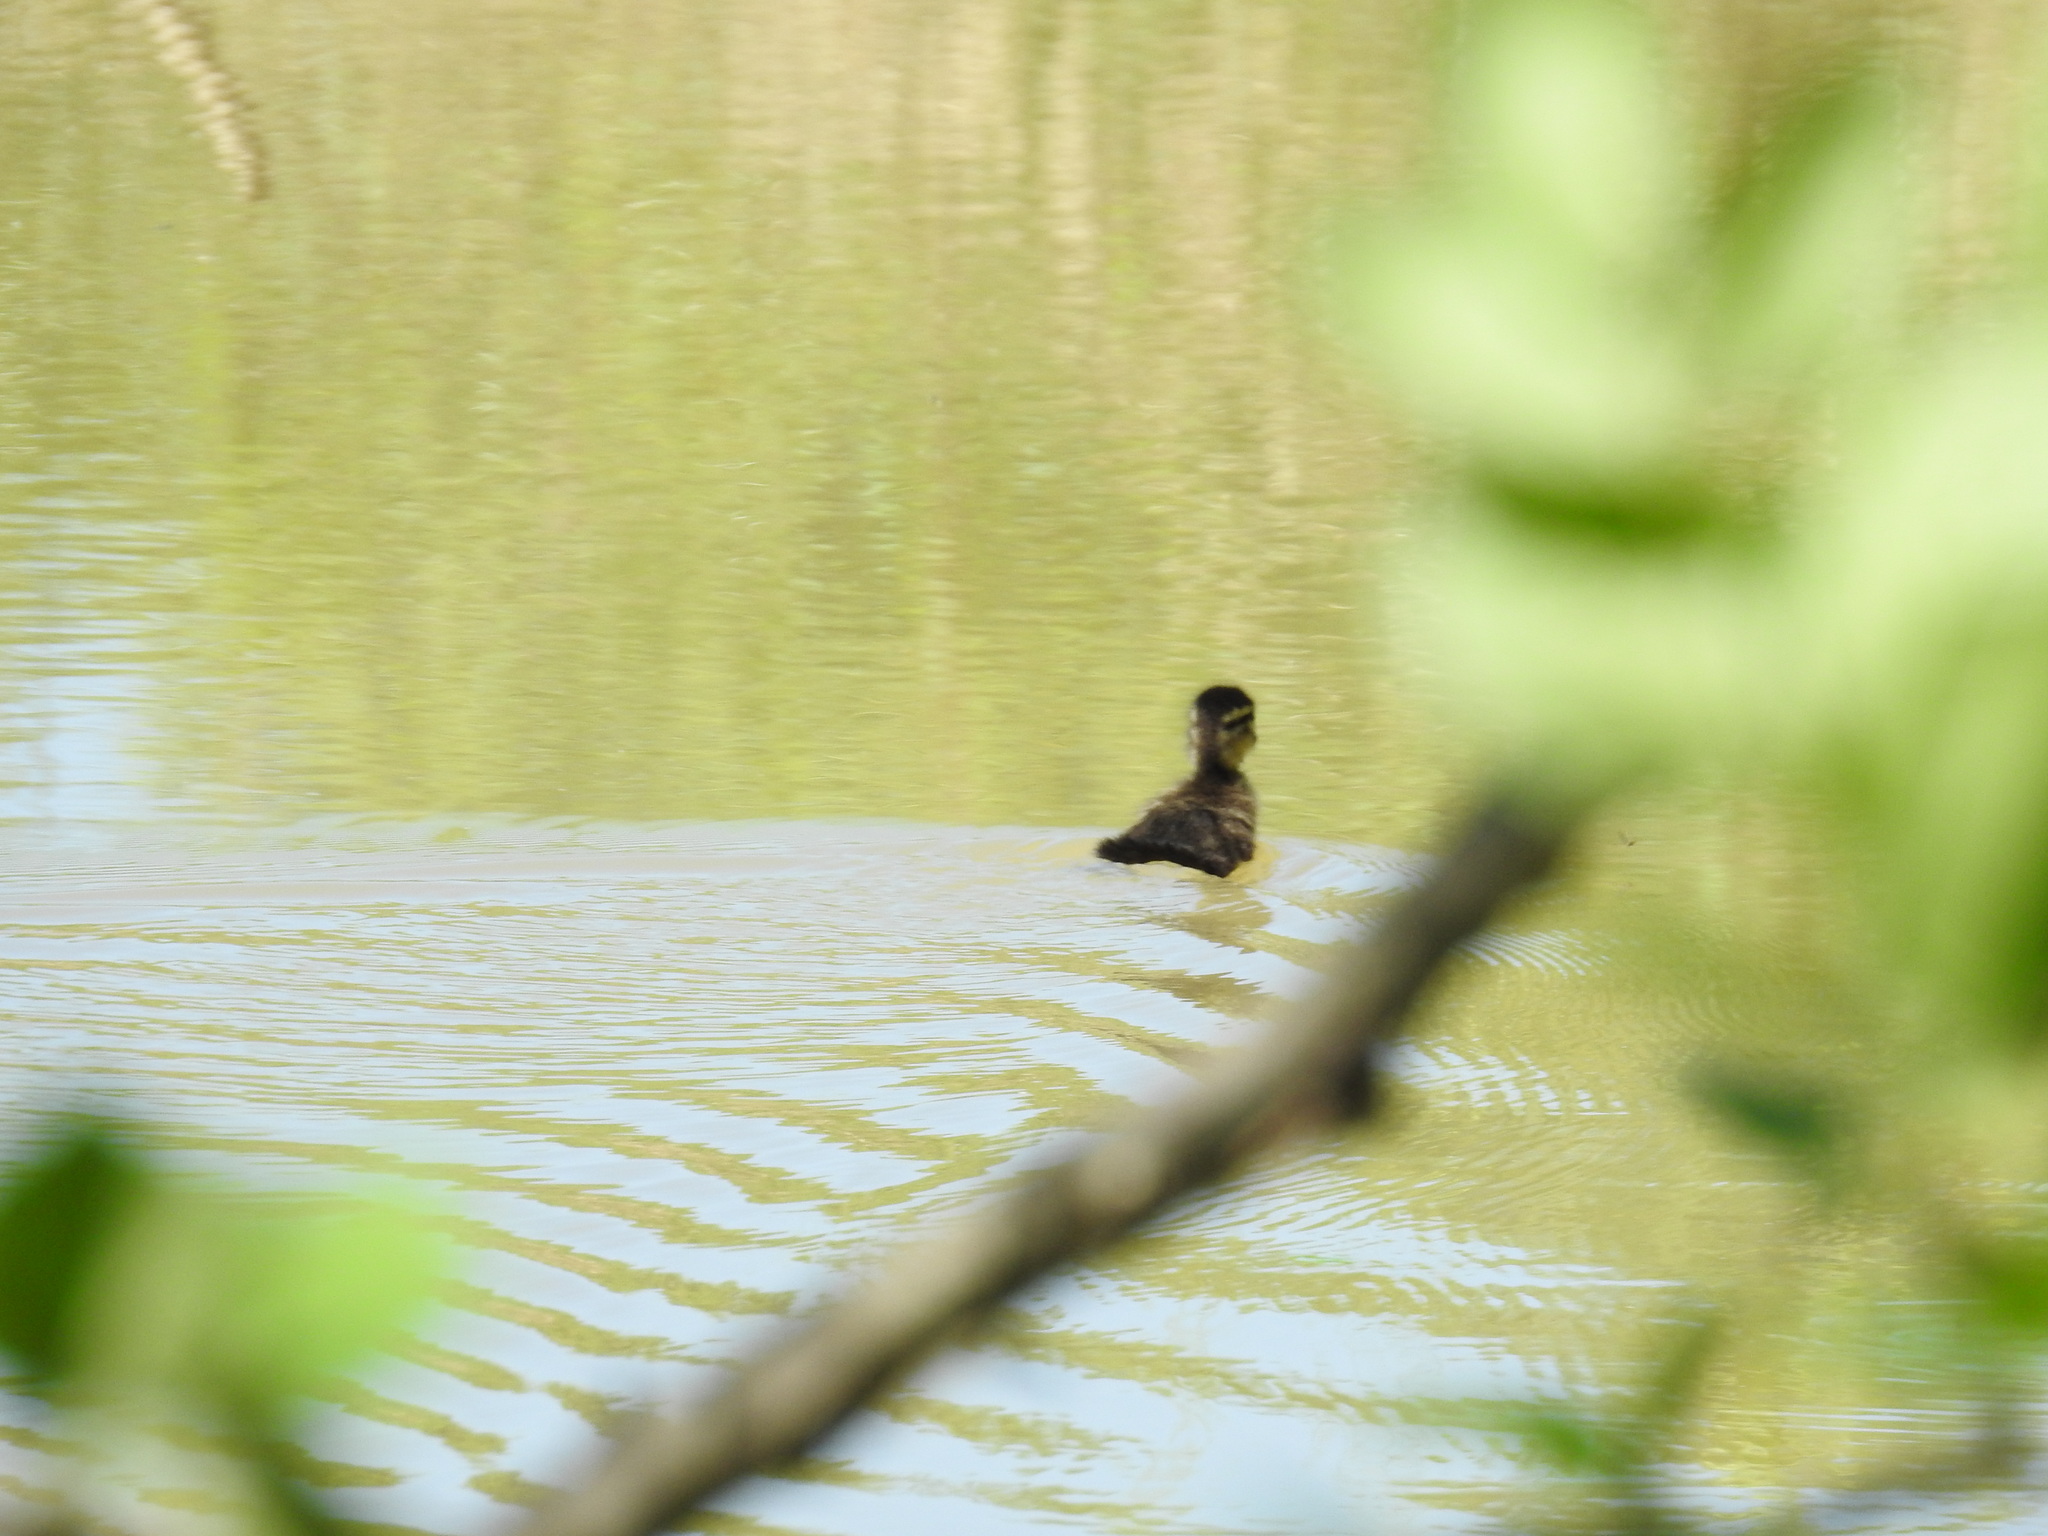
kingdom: Animalia
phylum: Chordata
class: Aves
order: Anseriformes
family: Anatidae
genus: Aix
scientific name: Aix sponsa
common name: Wood duck
